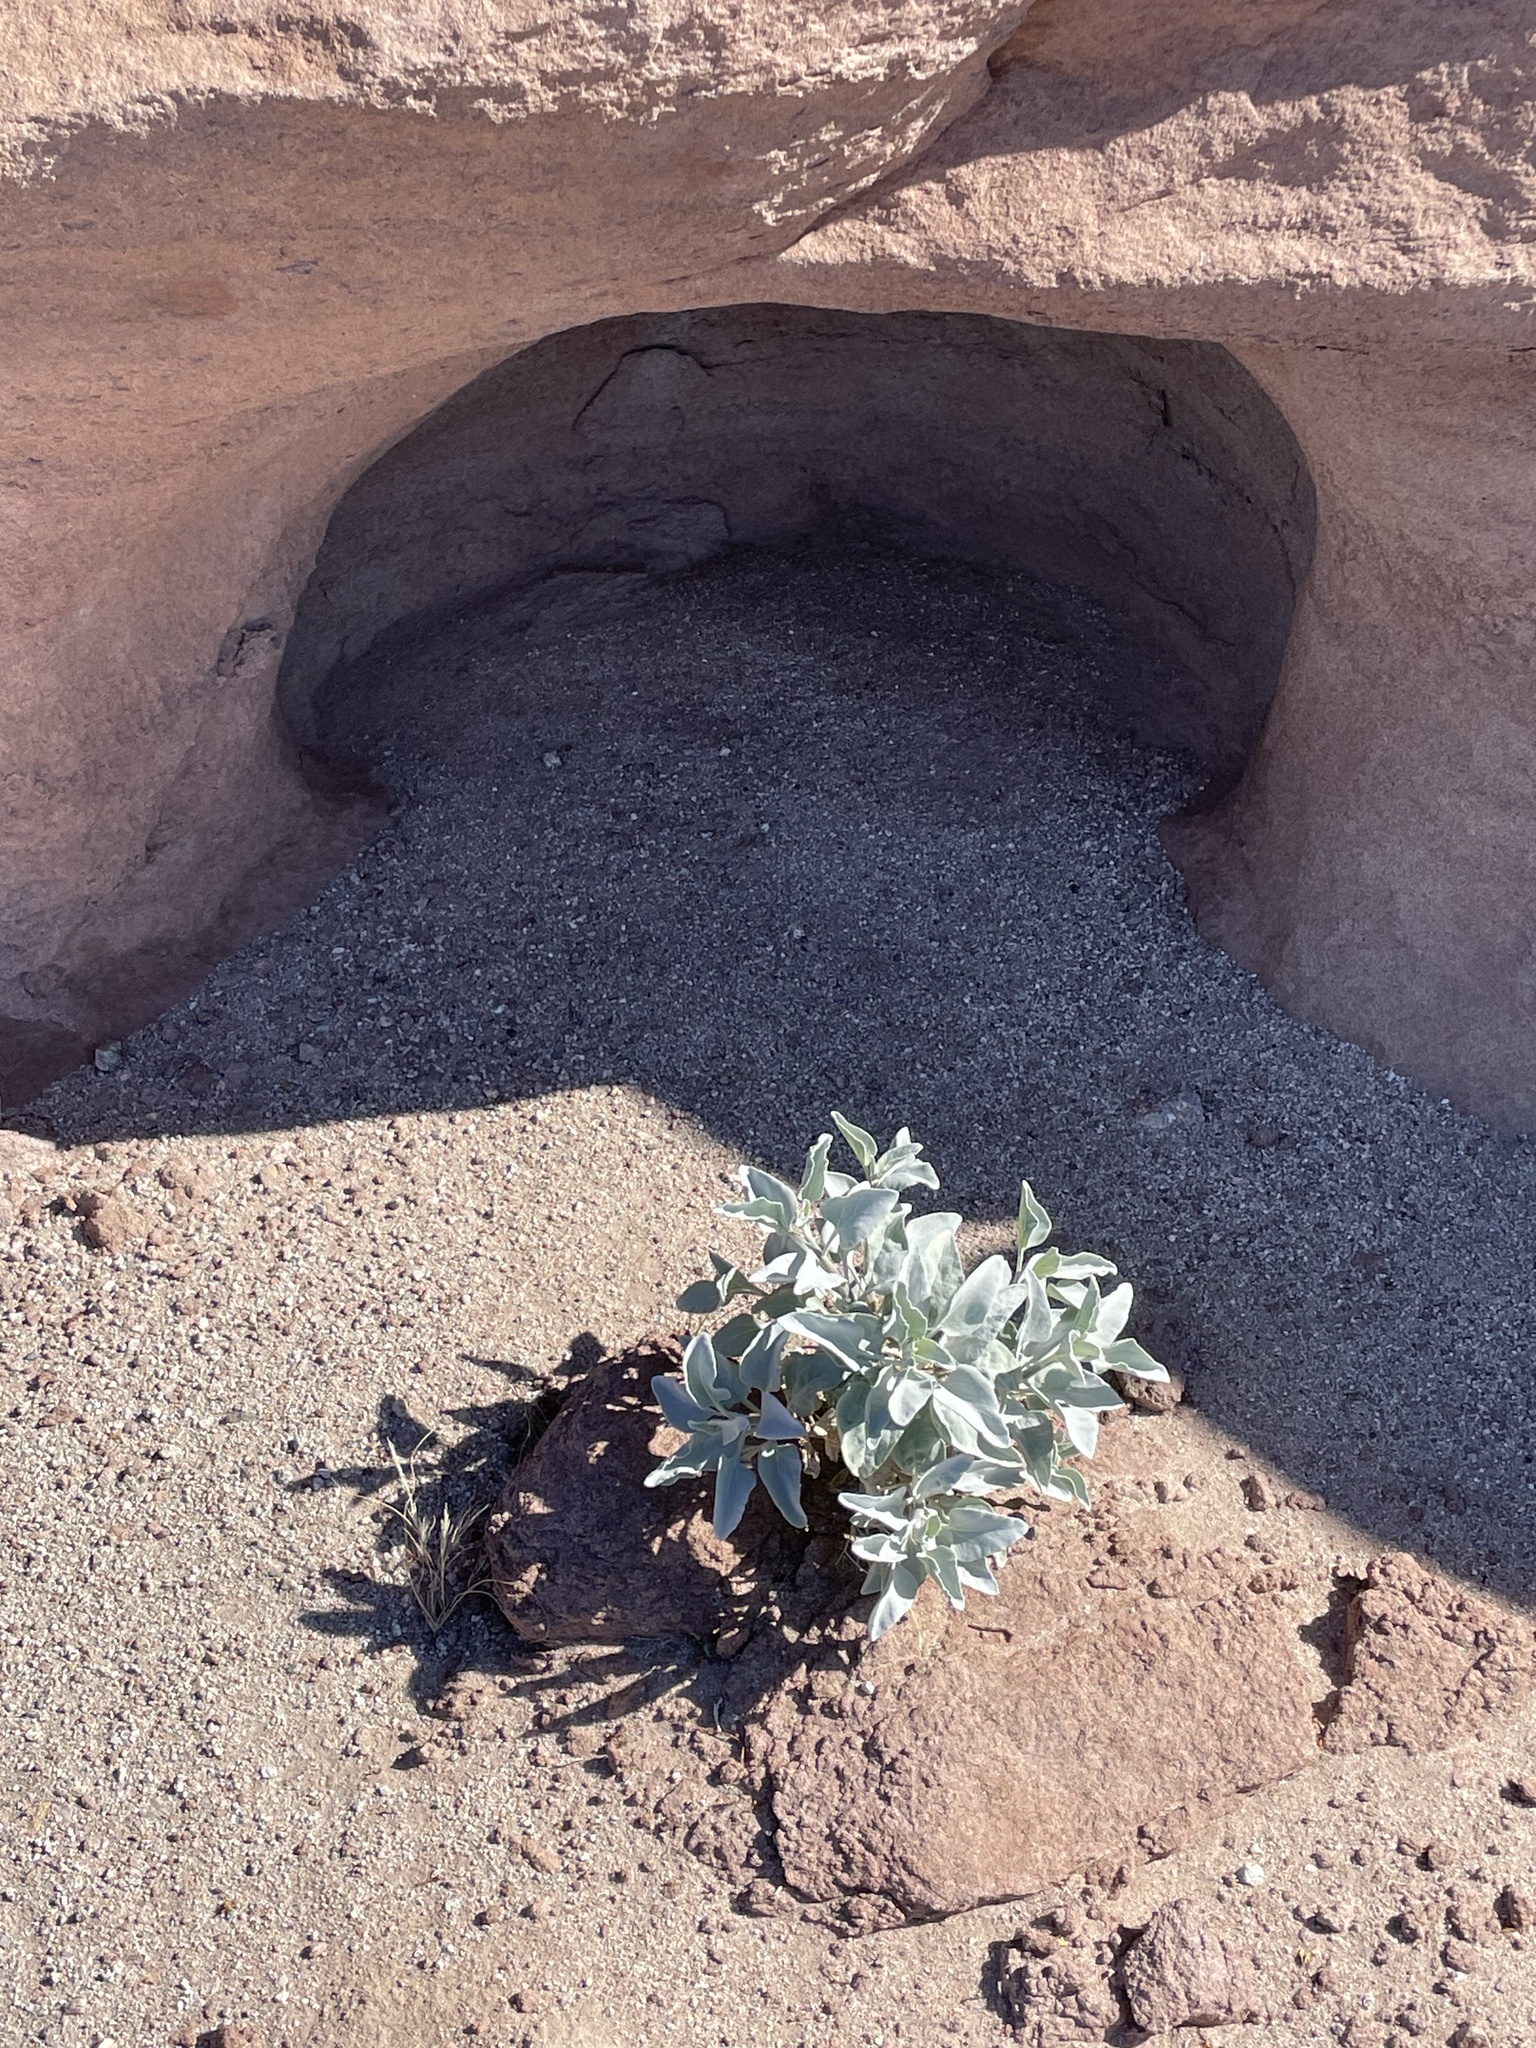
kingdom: Plantae
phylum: Tracheophyta
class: Magnoliopsida
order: Asterales
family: Asteraceae
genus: Encelia
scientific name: Encelia farinosa
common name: Brittlebush
